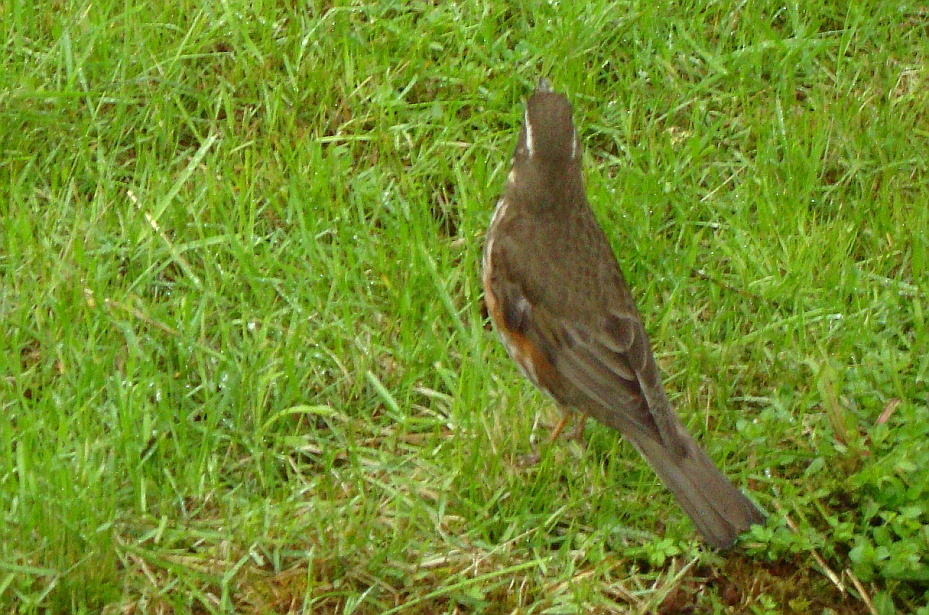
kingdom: Animalia
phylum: Chordata
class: Aves
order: Passeriformes
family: Turdidae
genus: Turdus
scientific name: Turdus iliacus
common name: Redwing
